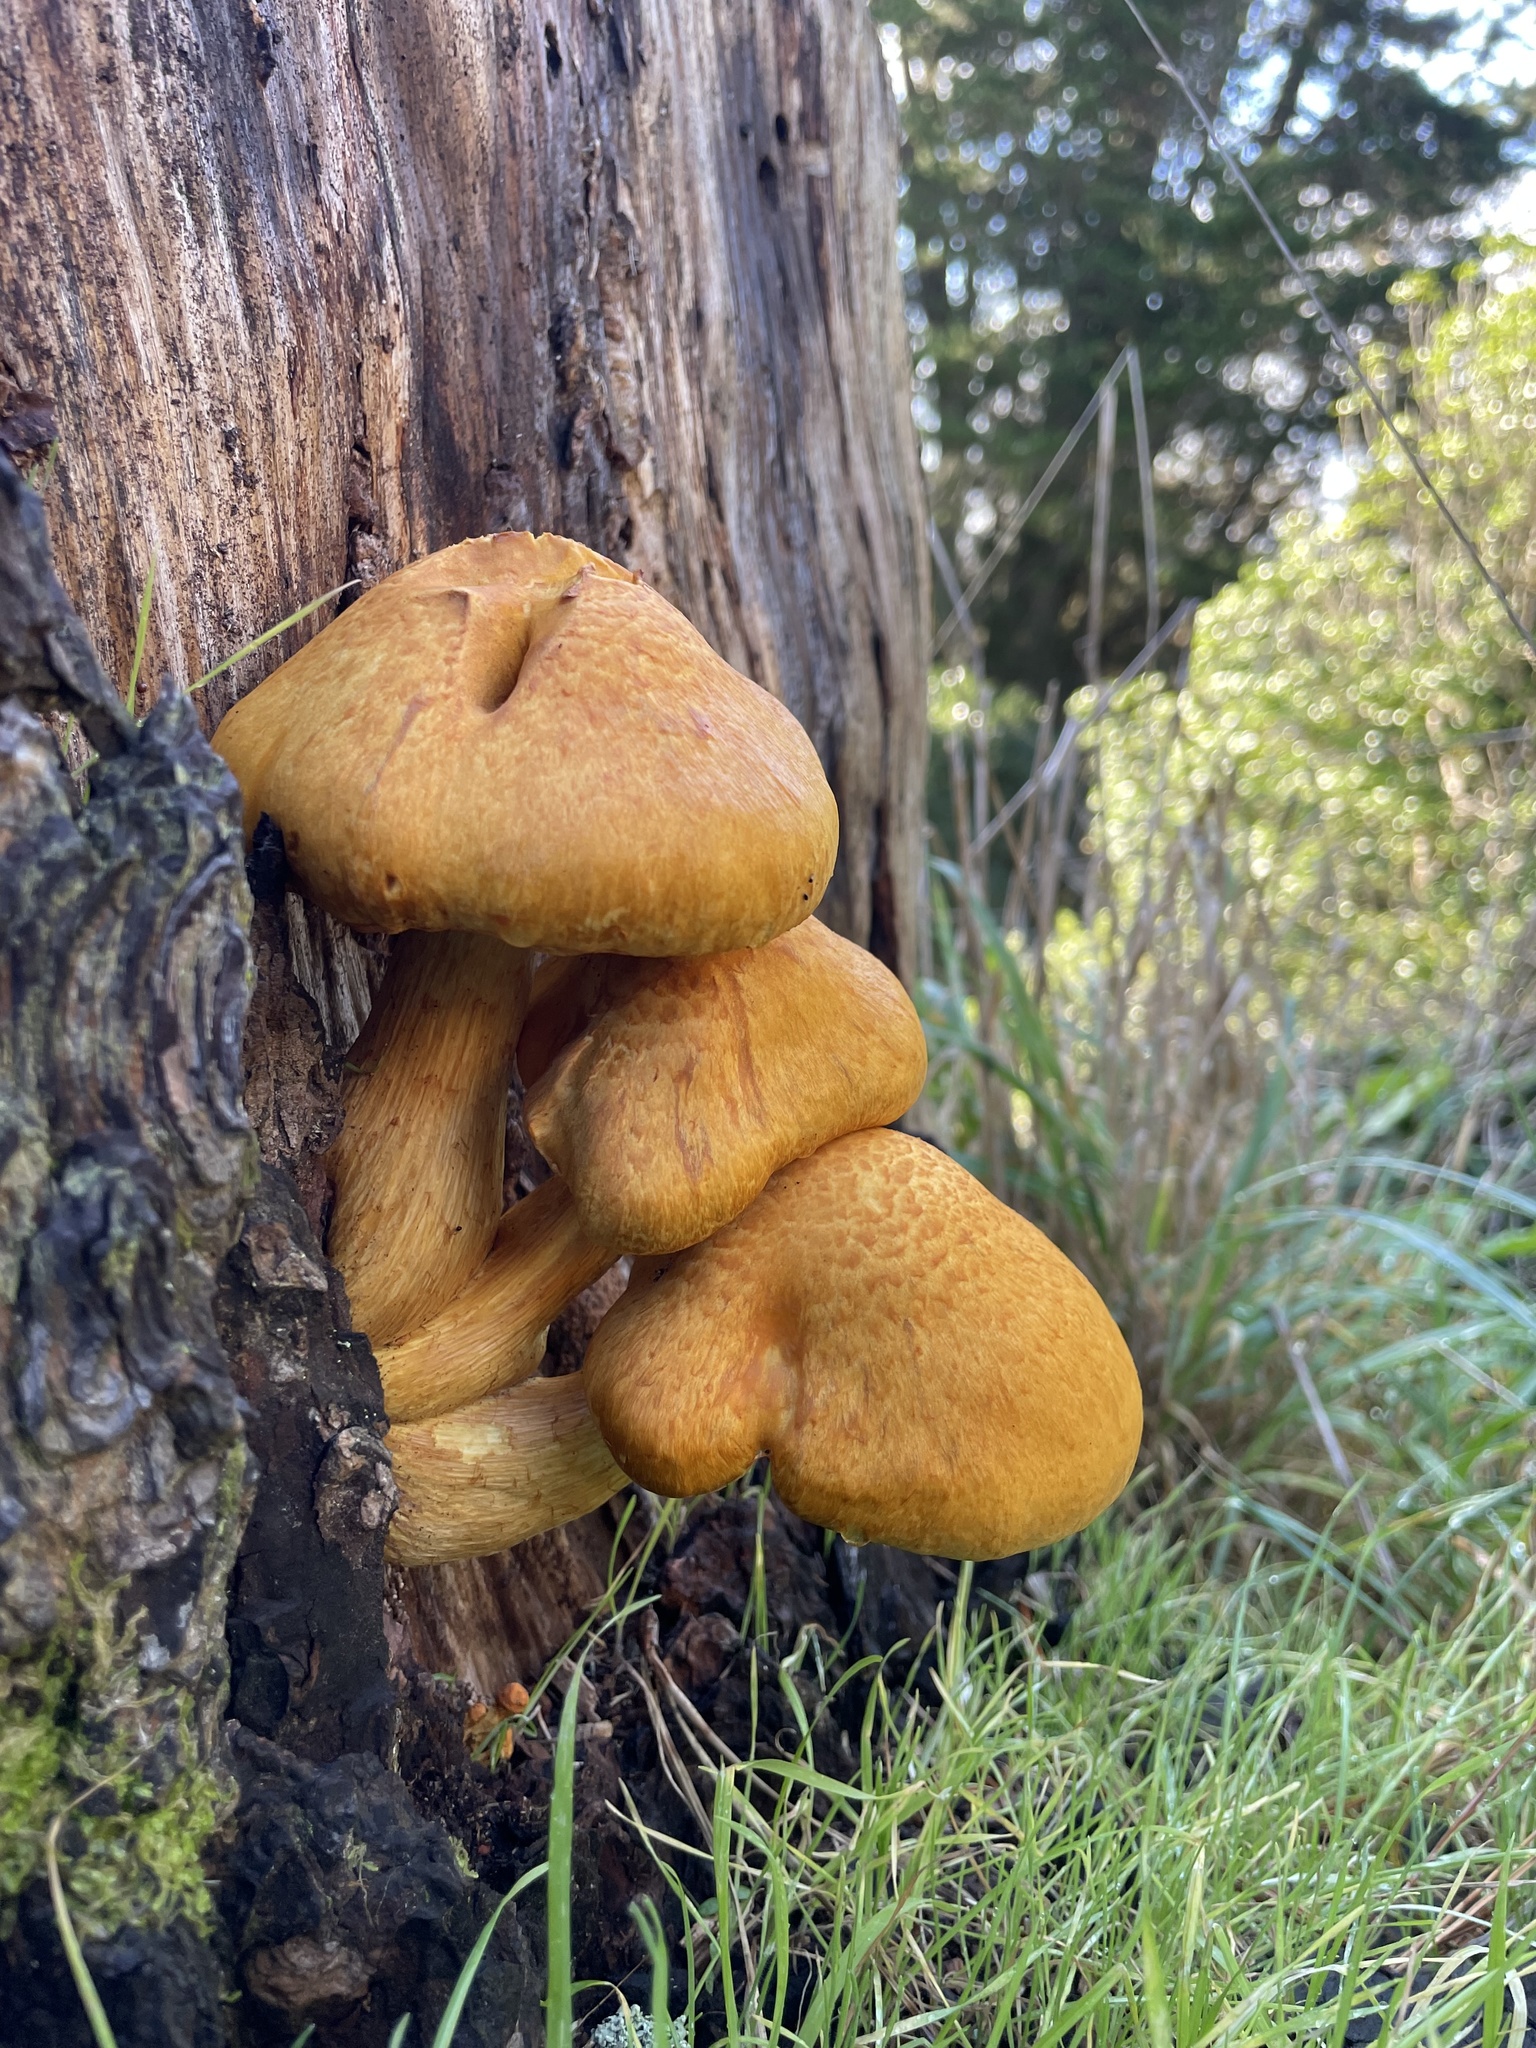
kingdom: Fungi
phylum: Basidiomycota
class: Agaricomycetes
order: Agaricales
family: Hymenogastraceae
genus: Gymnopilus
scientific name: Gymnopilus junonius
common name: Spectacular rustgill
